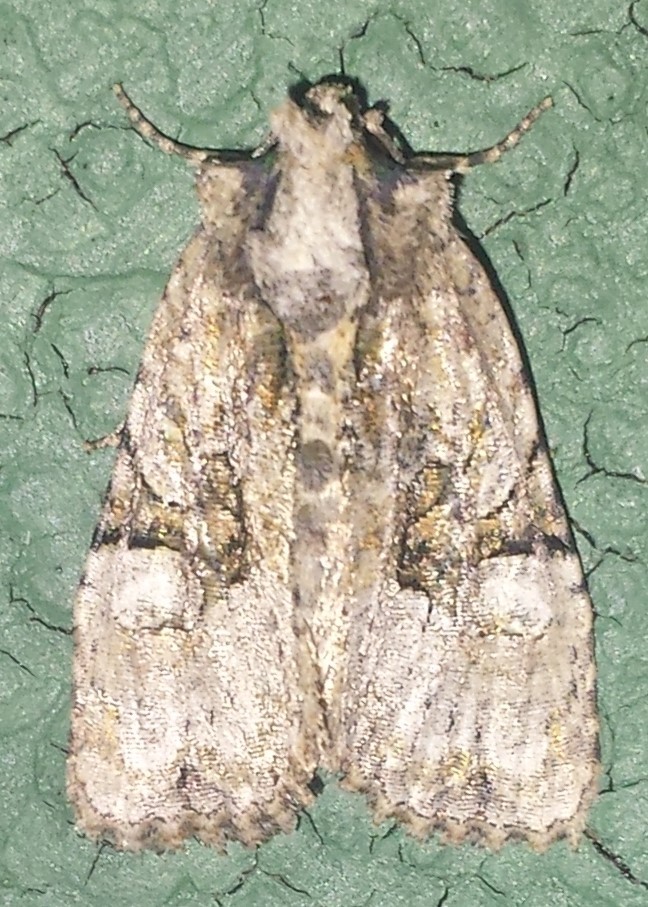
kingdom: Animalia
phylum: Arthropoda
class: Insecta
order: Lepidoptera
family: Noctuidae
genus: Oligia
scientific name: Oligia modica
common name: Black-banded brocade
